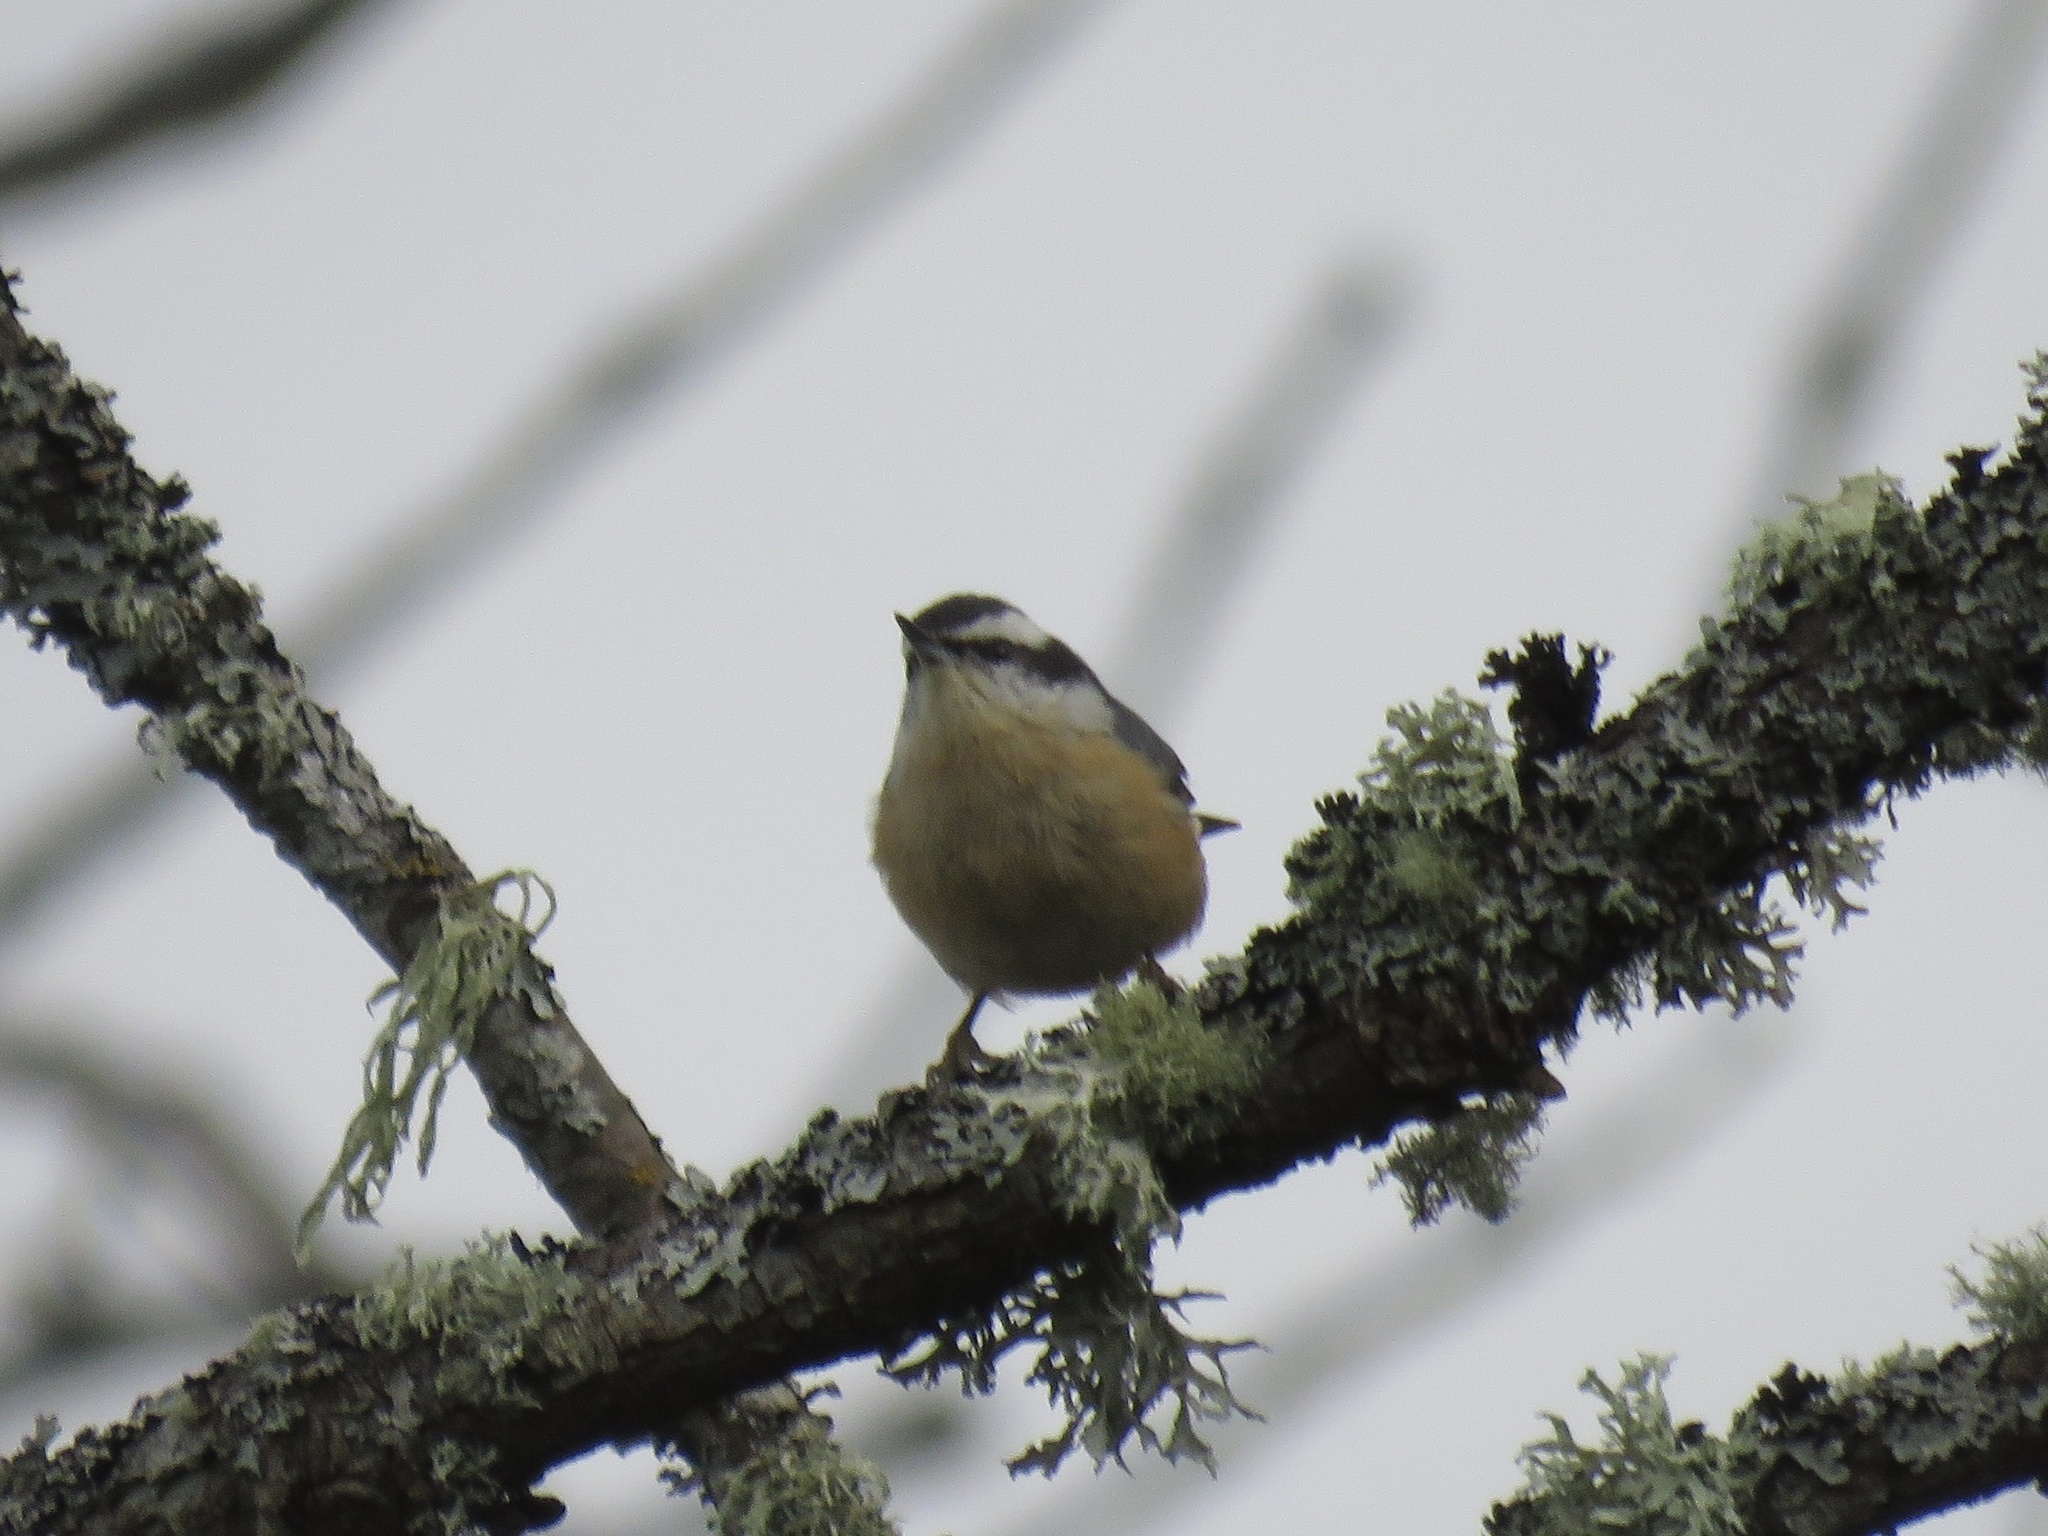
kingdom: Animalia
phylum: Chordata
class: Aves
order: Passeriformes
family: Sittidae
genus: Sitta
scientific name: Sitta canadensis
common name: Red-breasted nuthatch
